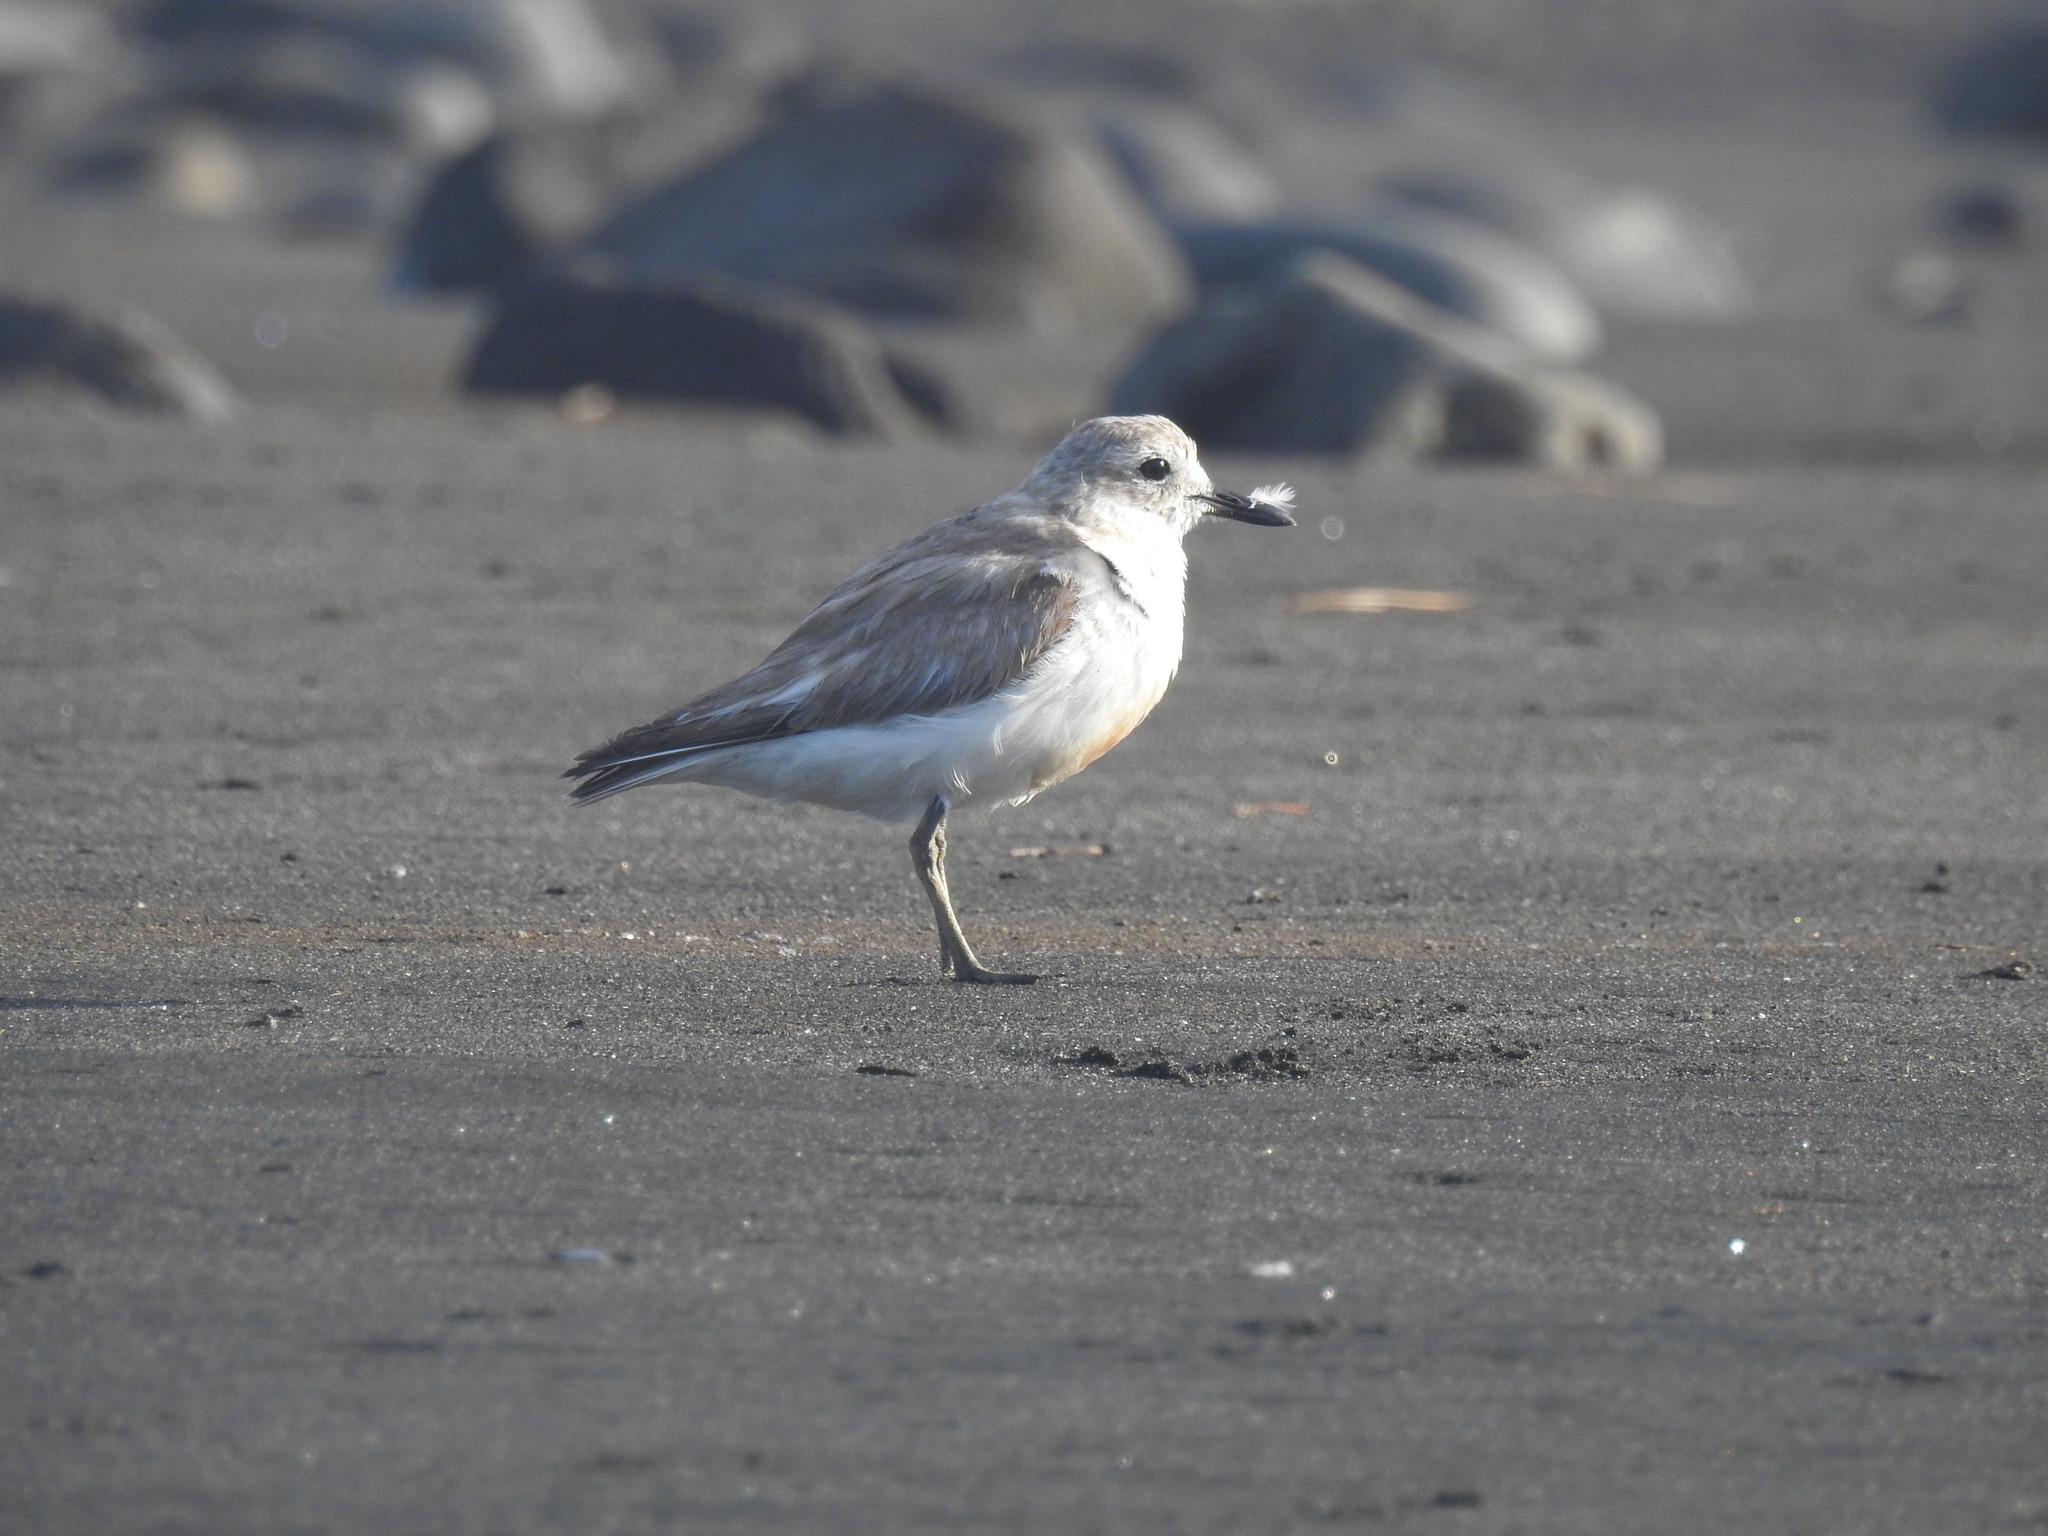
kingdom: Animalia
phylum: Chordata
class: Aves
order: Charadriiformes
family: Charadriidae
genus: Anarhynchus
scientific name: Anarhynchus
